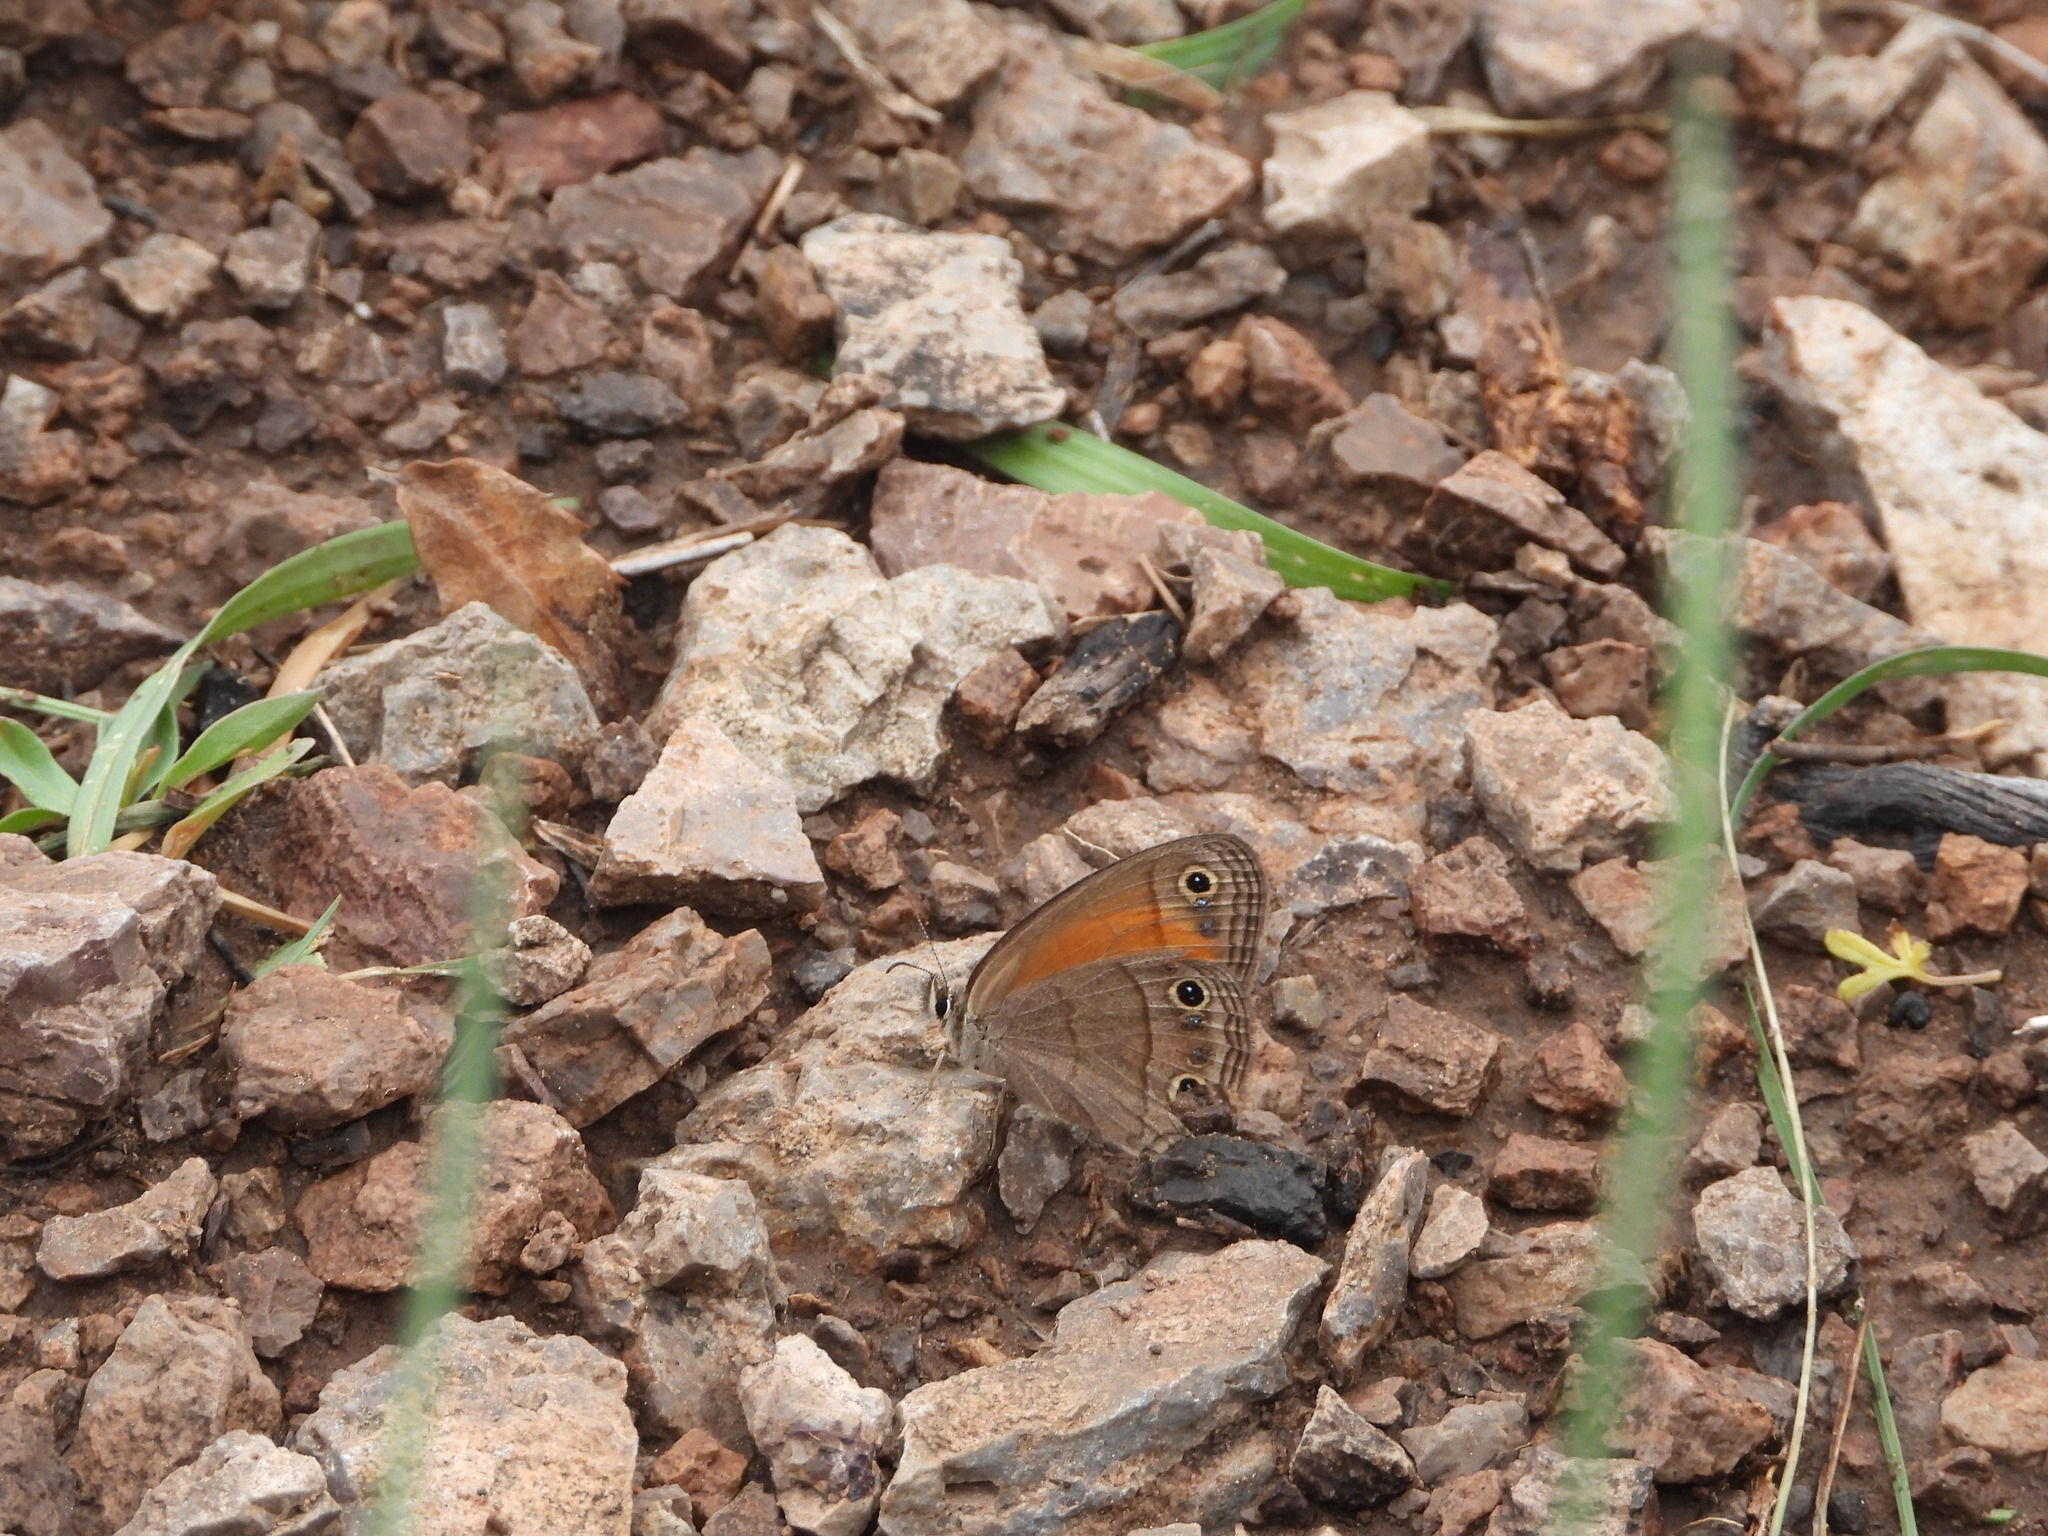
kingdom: Animalia
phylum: Arthropoda
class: Insecta
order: Lepidoptera
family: Nymphalidae
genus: Euptychia
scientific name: Euptychia Cissia rubricata
